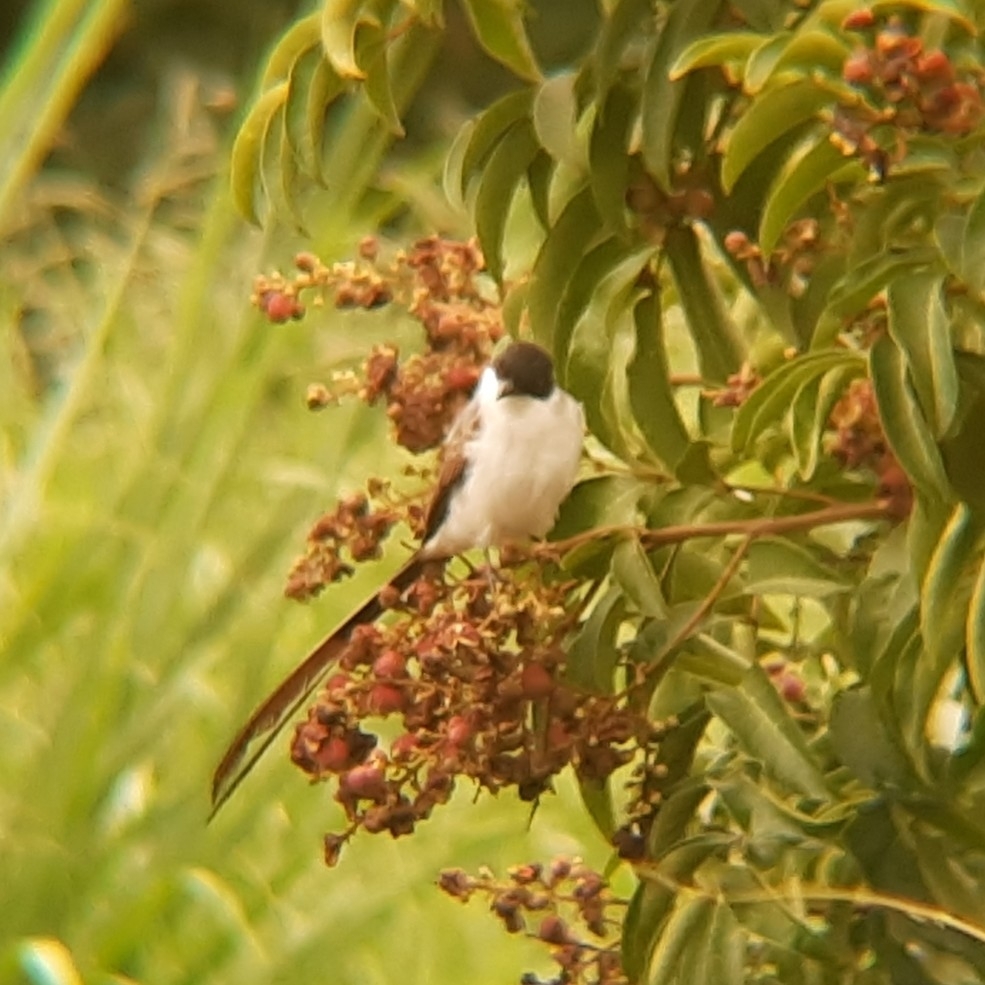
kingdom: Animalia
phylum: Chordata
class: Aves
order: Passeriformes
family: Tyrannidae
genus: Tyrannus
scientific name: Tyrannus savana
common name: Fork-tailed flycatcher
